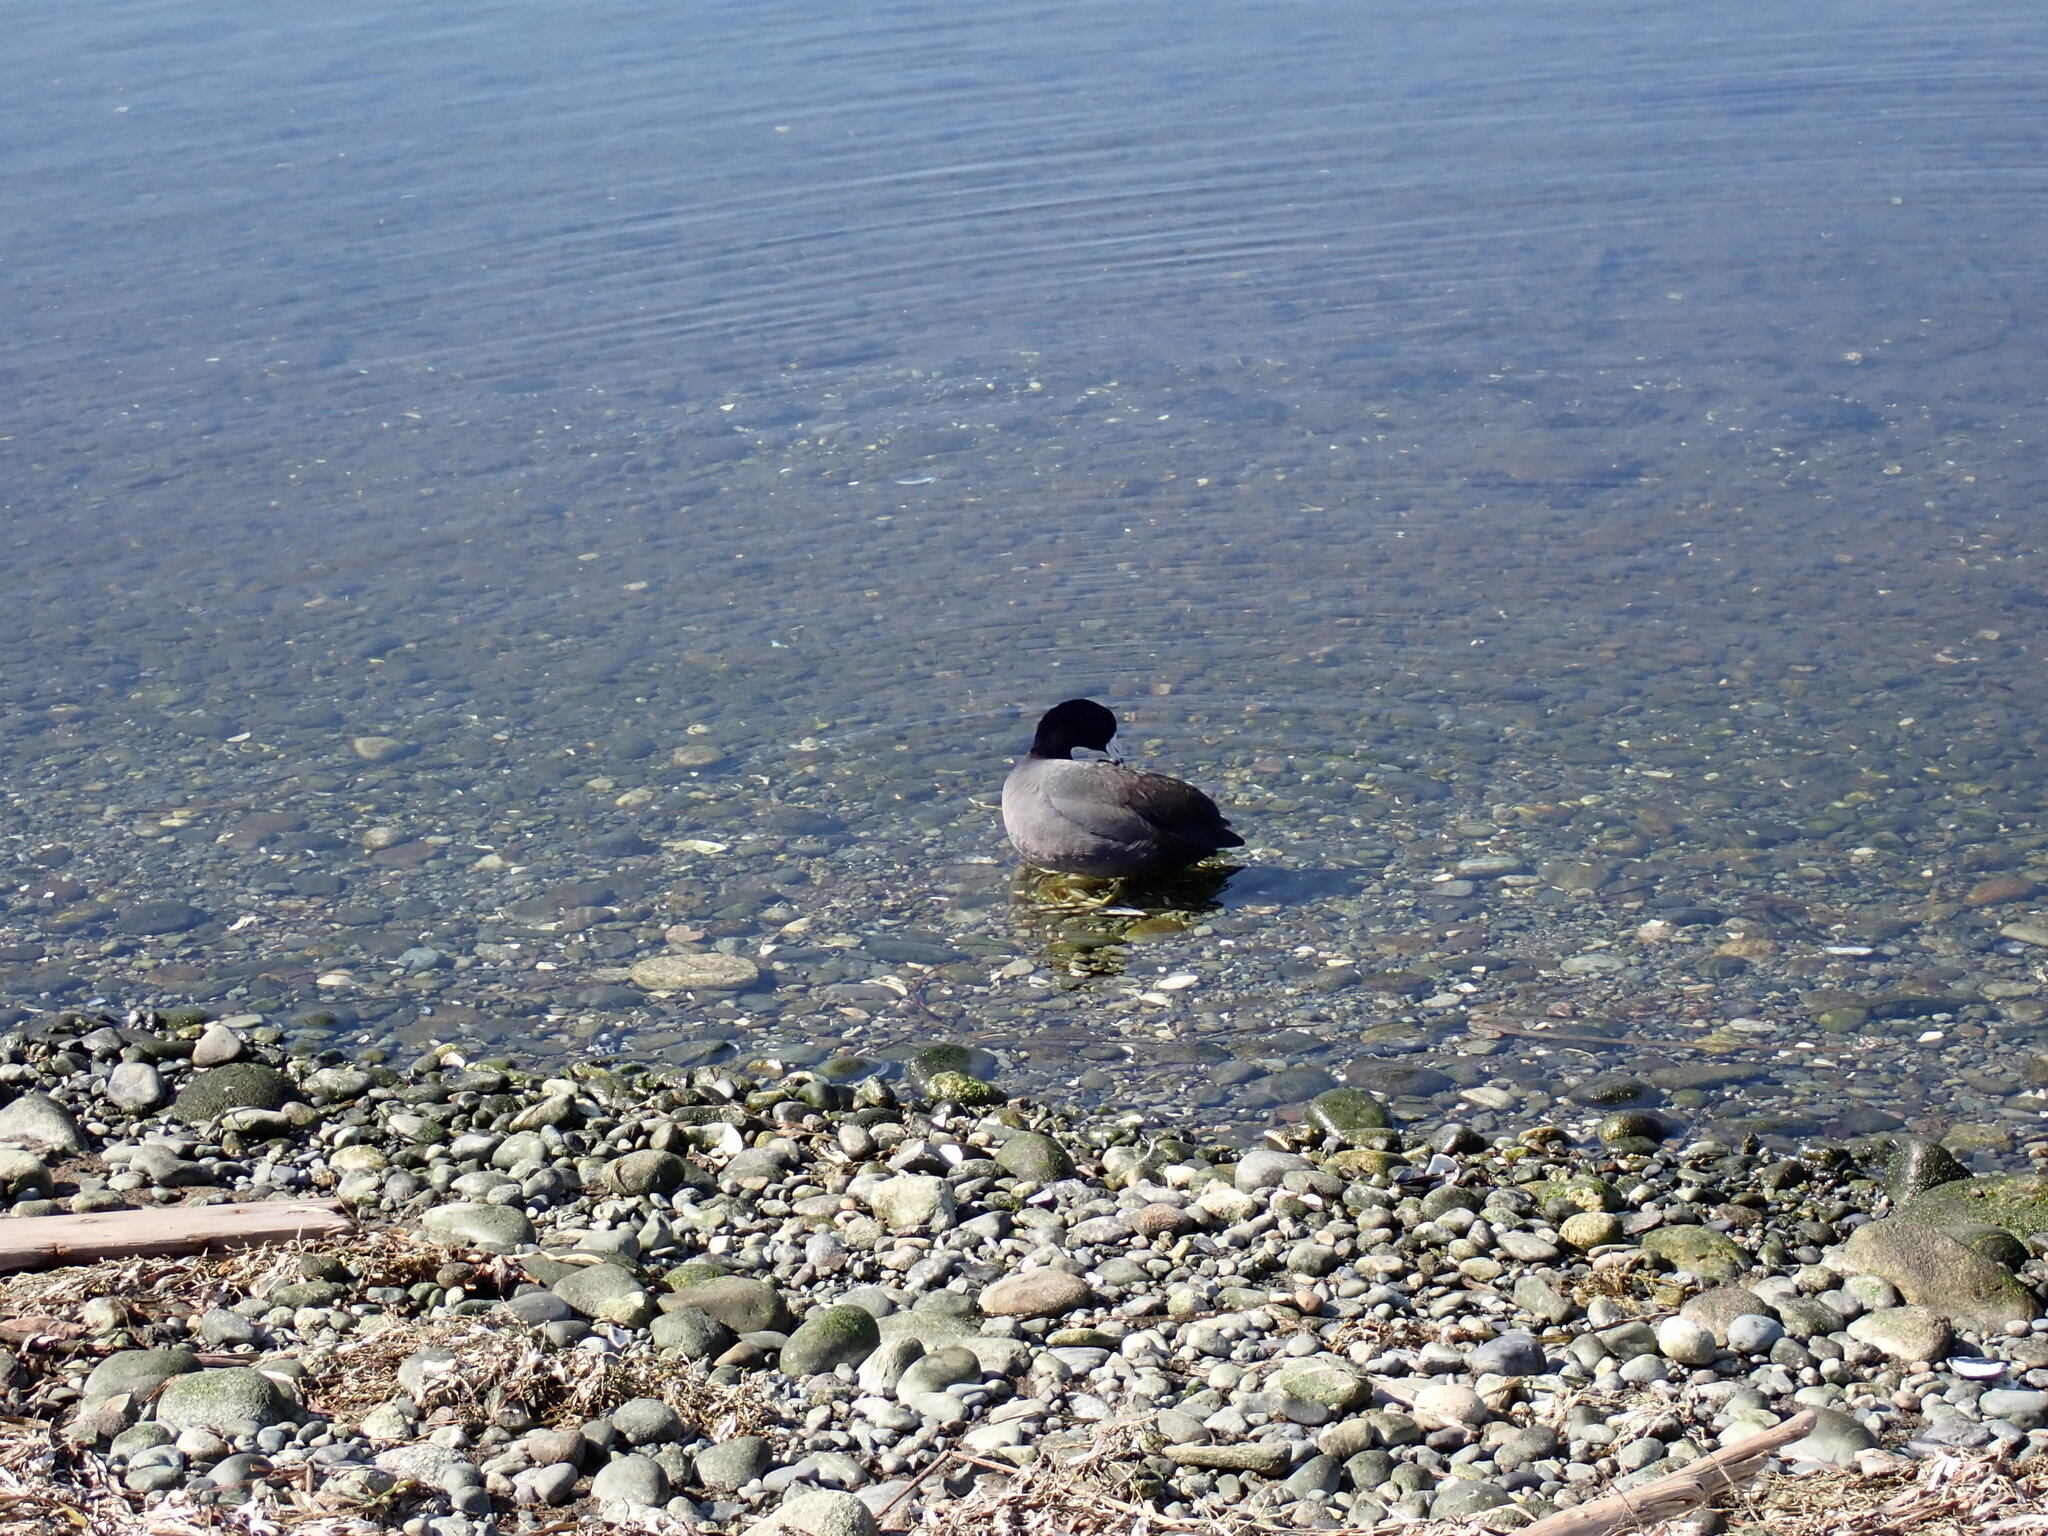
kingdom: Animalia
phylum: Chordata
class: Aves
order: Gruiformes
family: Rallidae
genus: Fulica
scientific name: Fulica americana
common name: American coot
